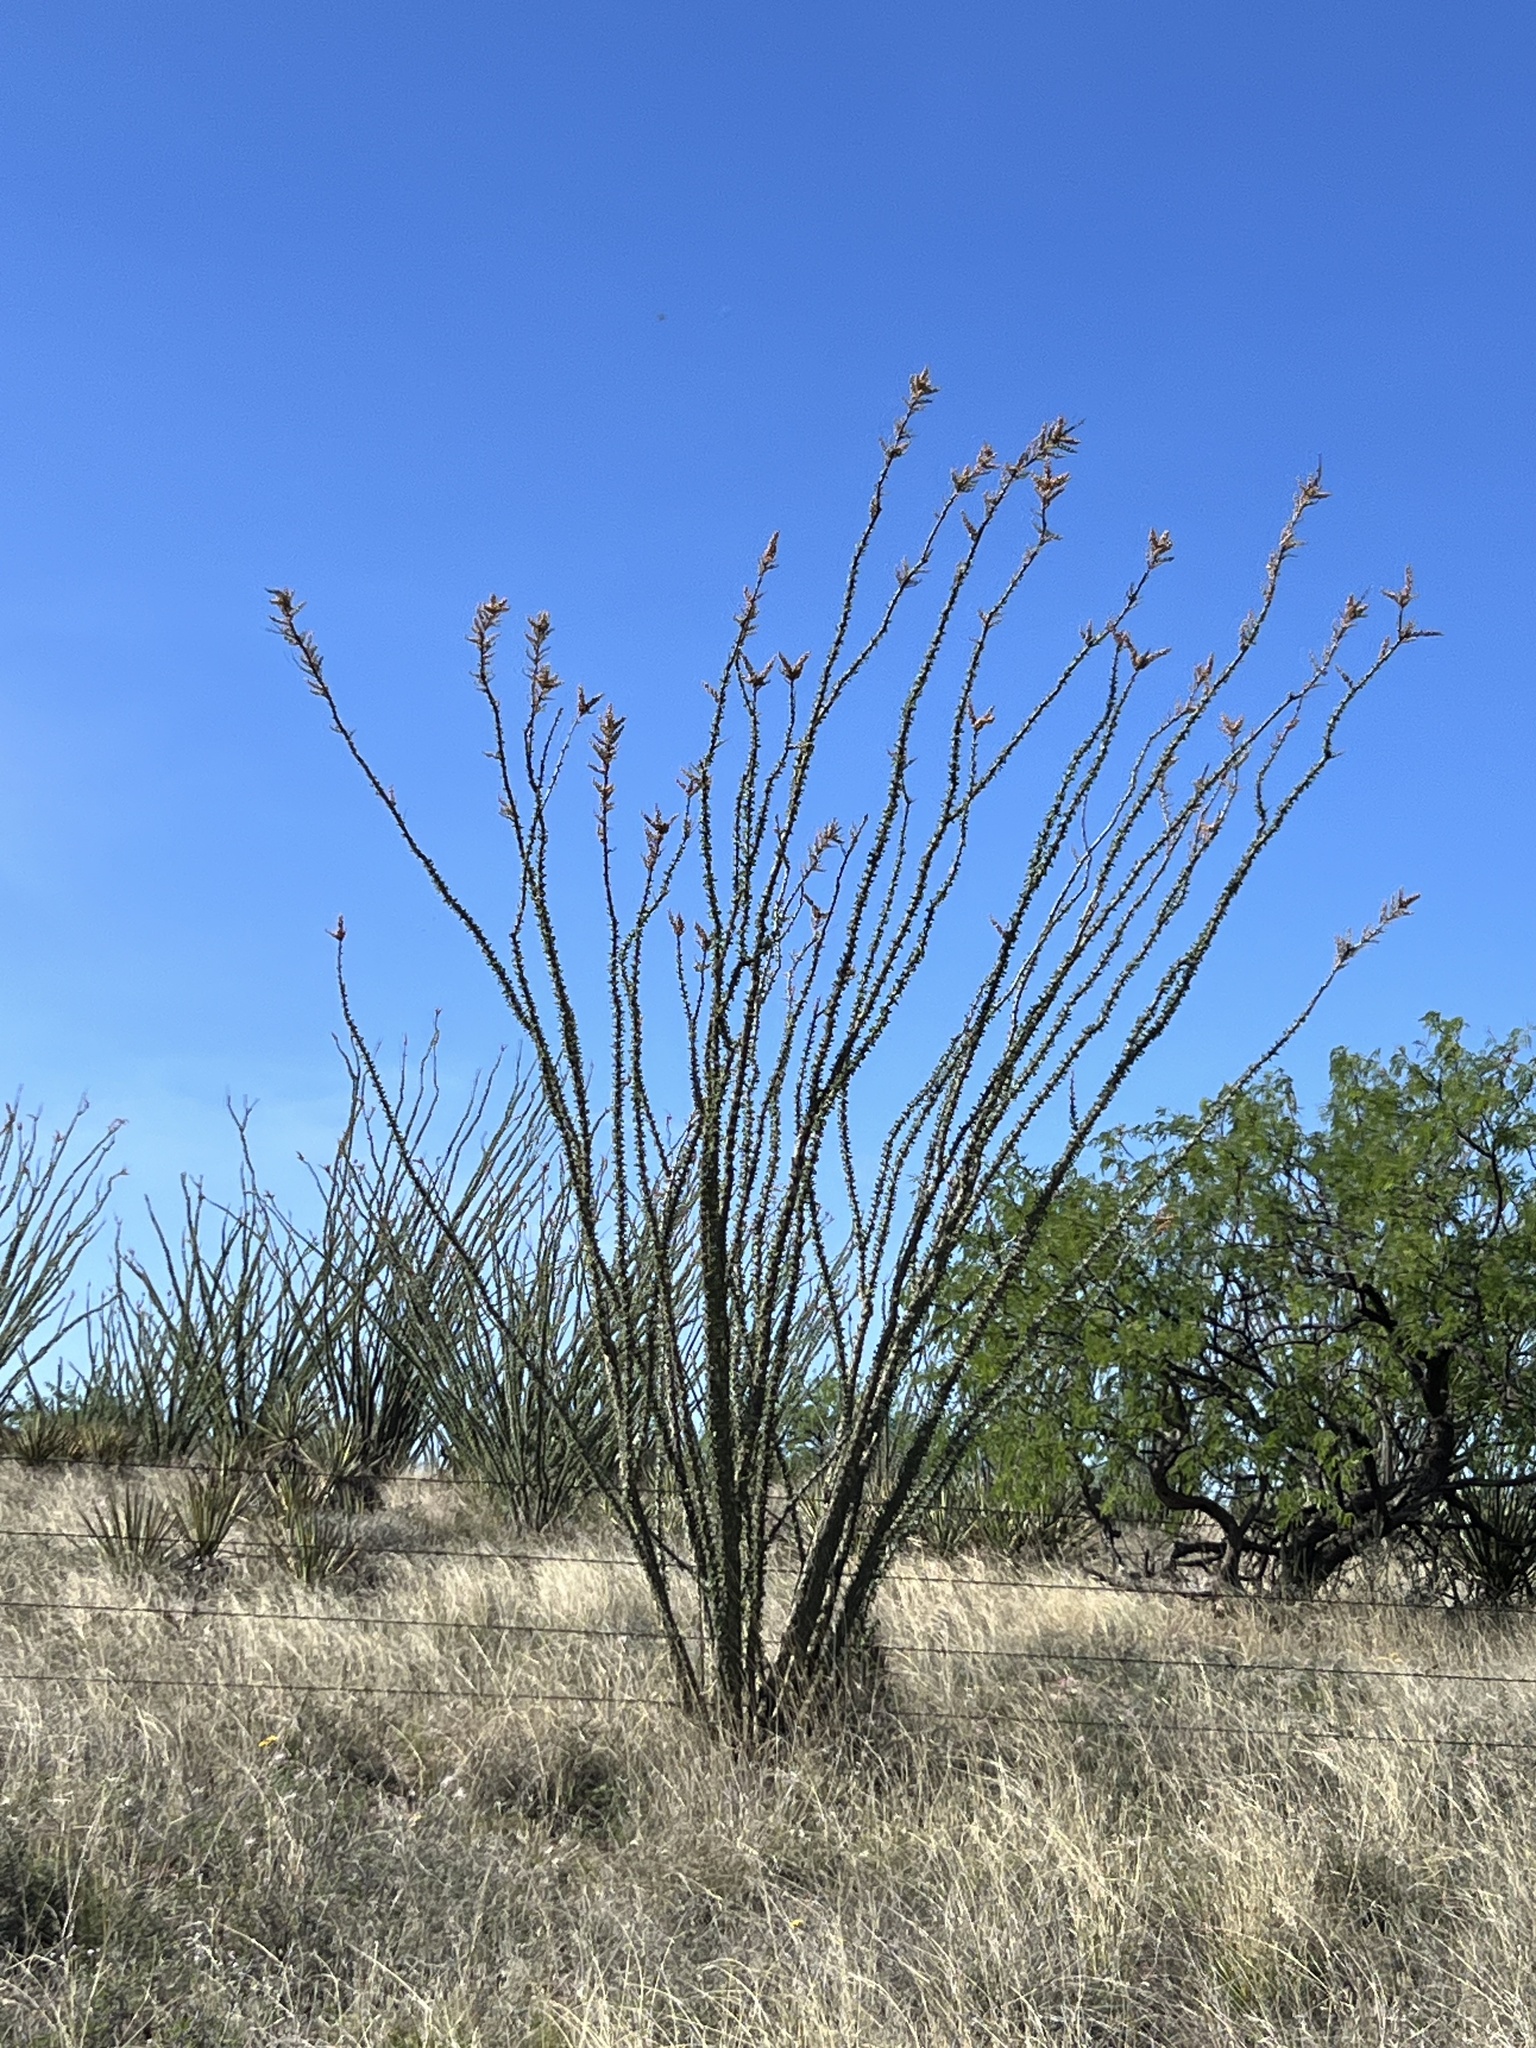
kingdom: Plantae
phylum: Tracheophyta
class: Magnoliopsida
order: Ericales
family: Fouquieriaceae
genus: Fouquieria
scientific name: Fouquieria splendens
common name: Vine-cactus
